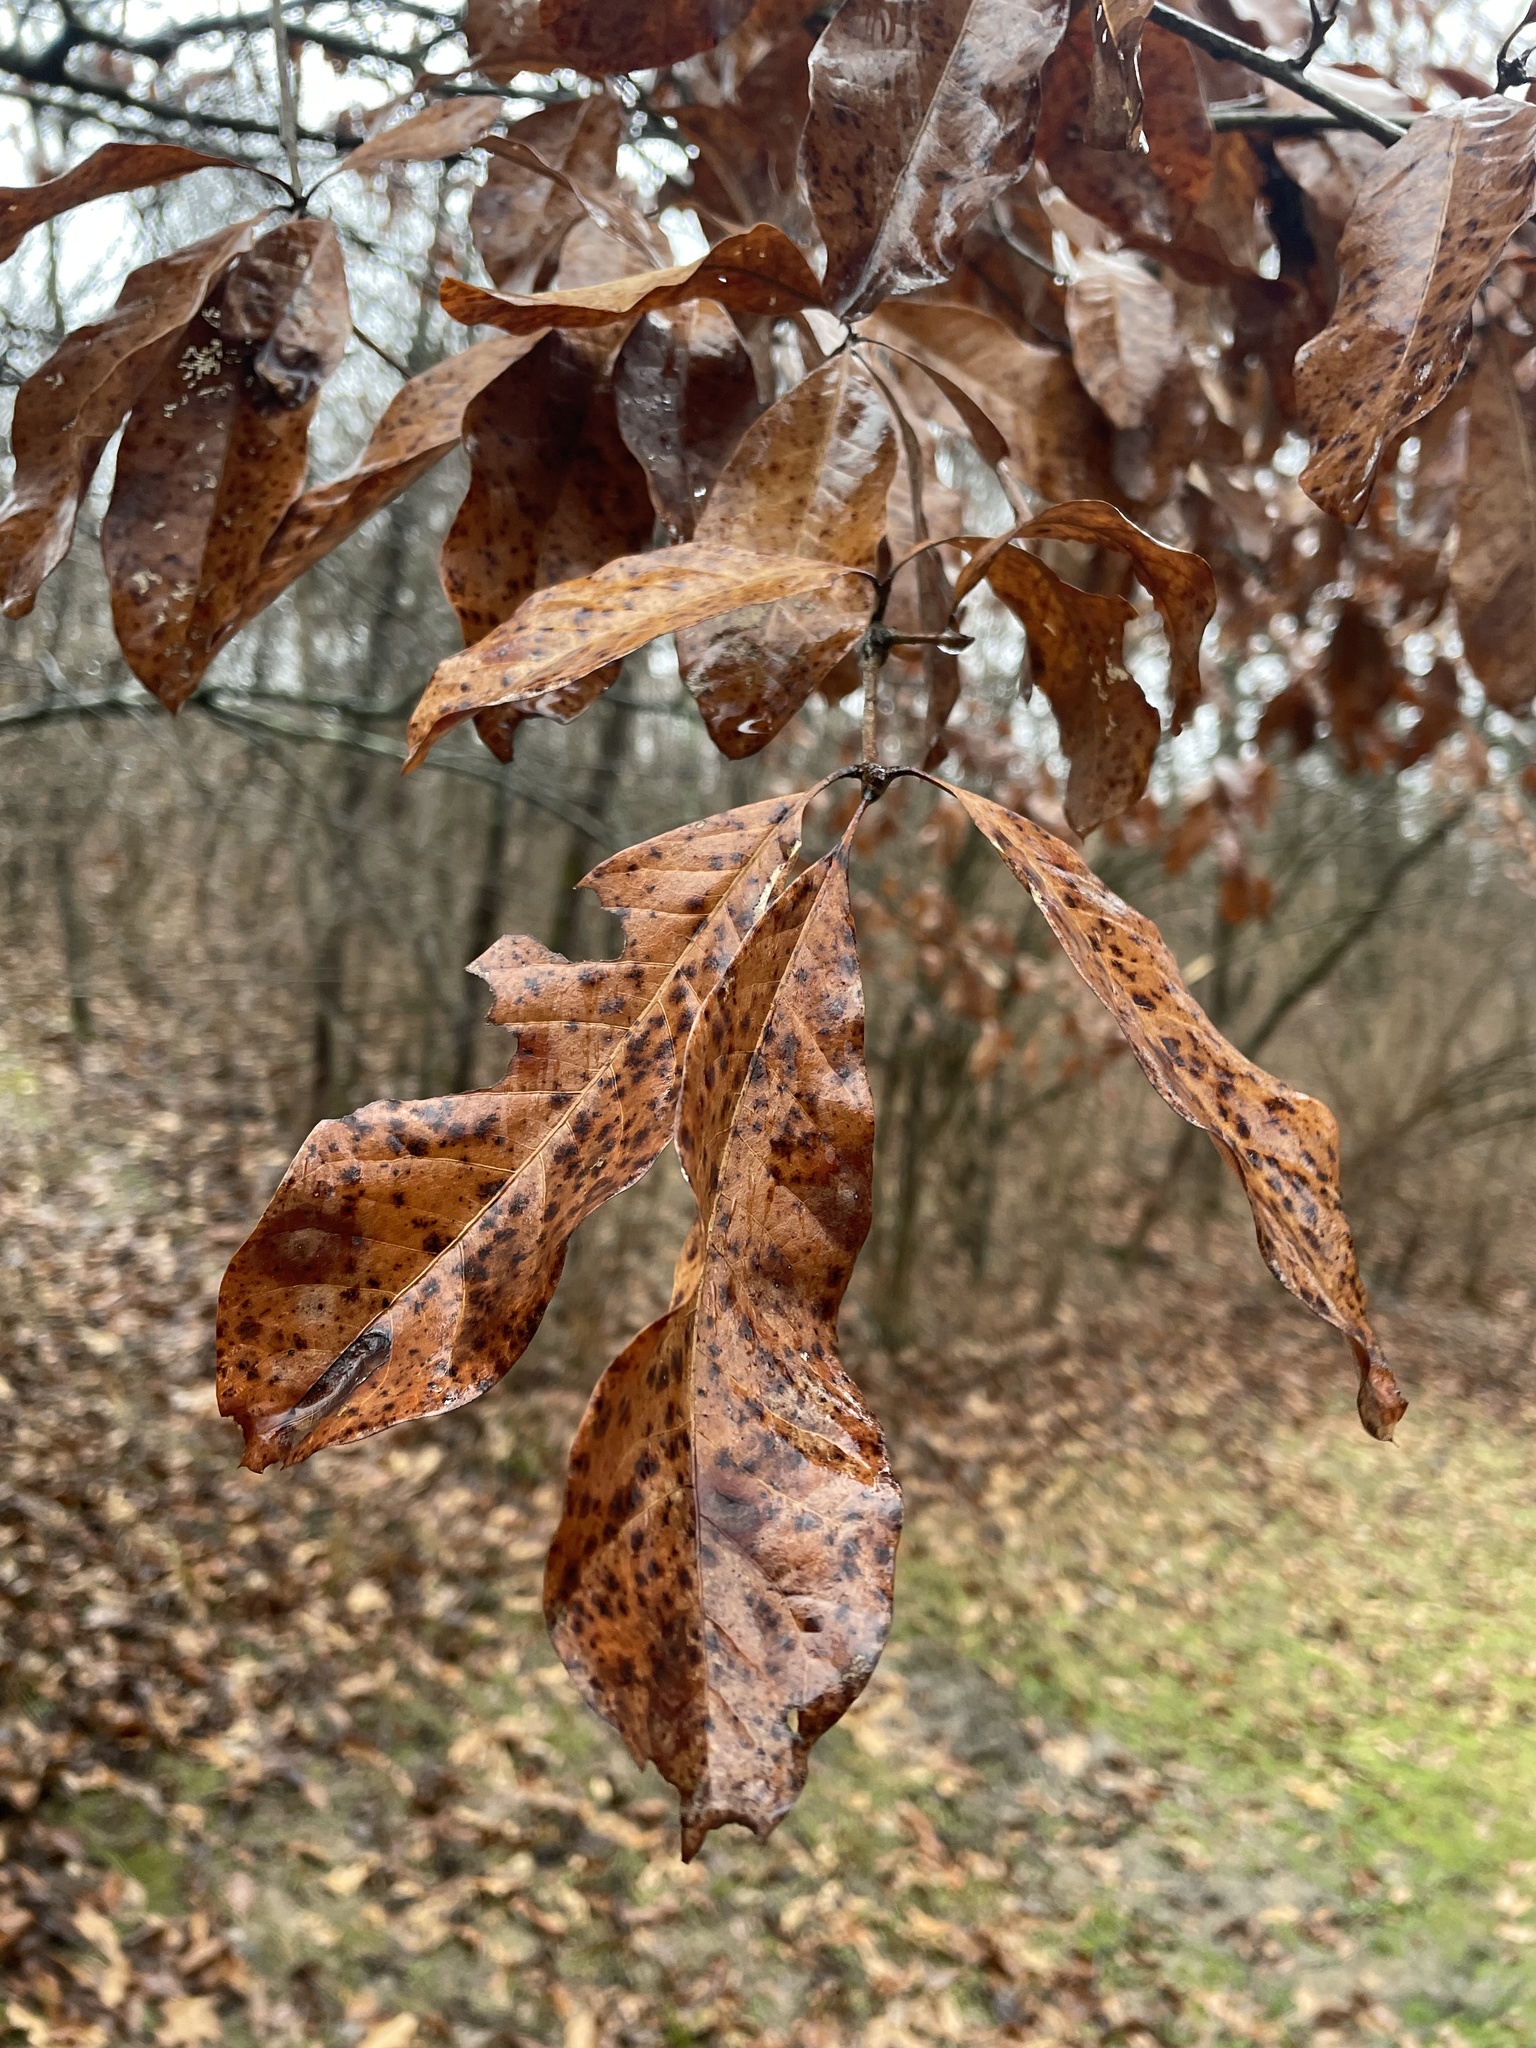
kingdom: Plantae
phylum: Tracheophyta
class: Magnoliopsida
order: Fagales
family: Fagaceae
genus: Quercus
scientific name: Quercus imbricaria
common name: Shingle oak
